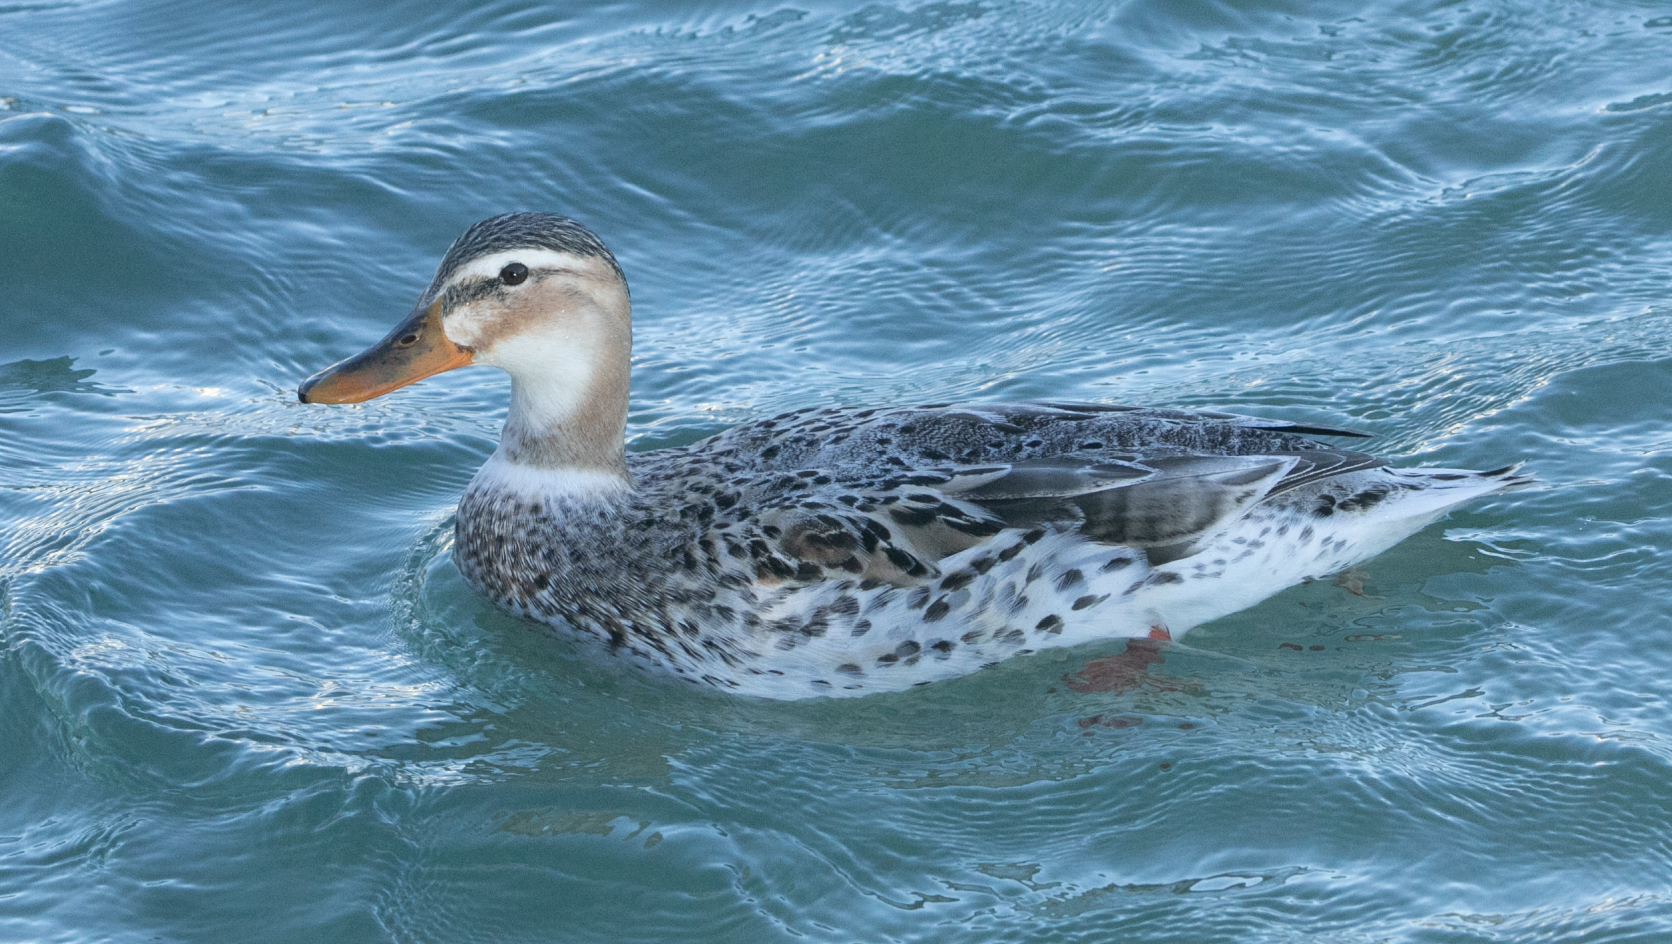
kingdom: Animalia
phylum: Chordata
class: Aves
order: Anseriformes
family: Anatidae
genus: Anas
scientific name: Anas platyrhynchos
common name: Mallard
